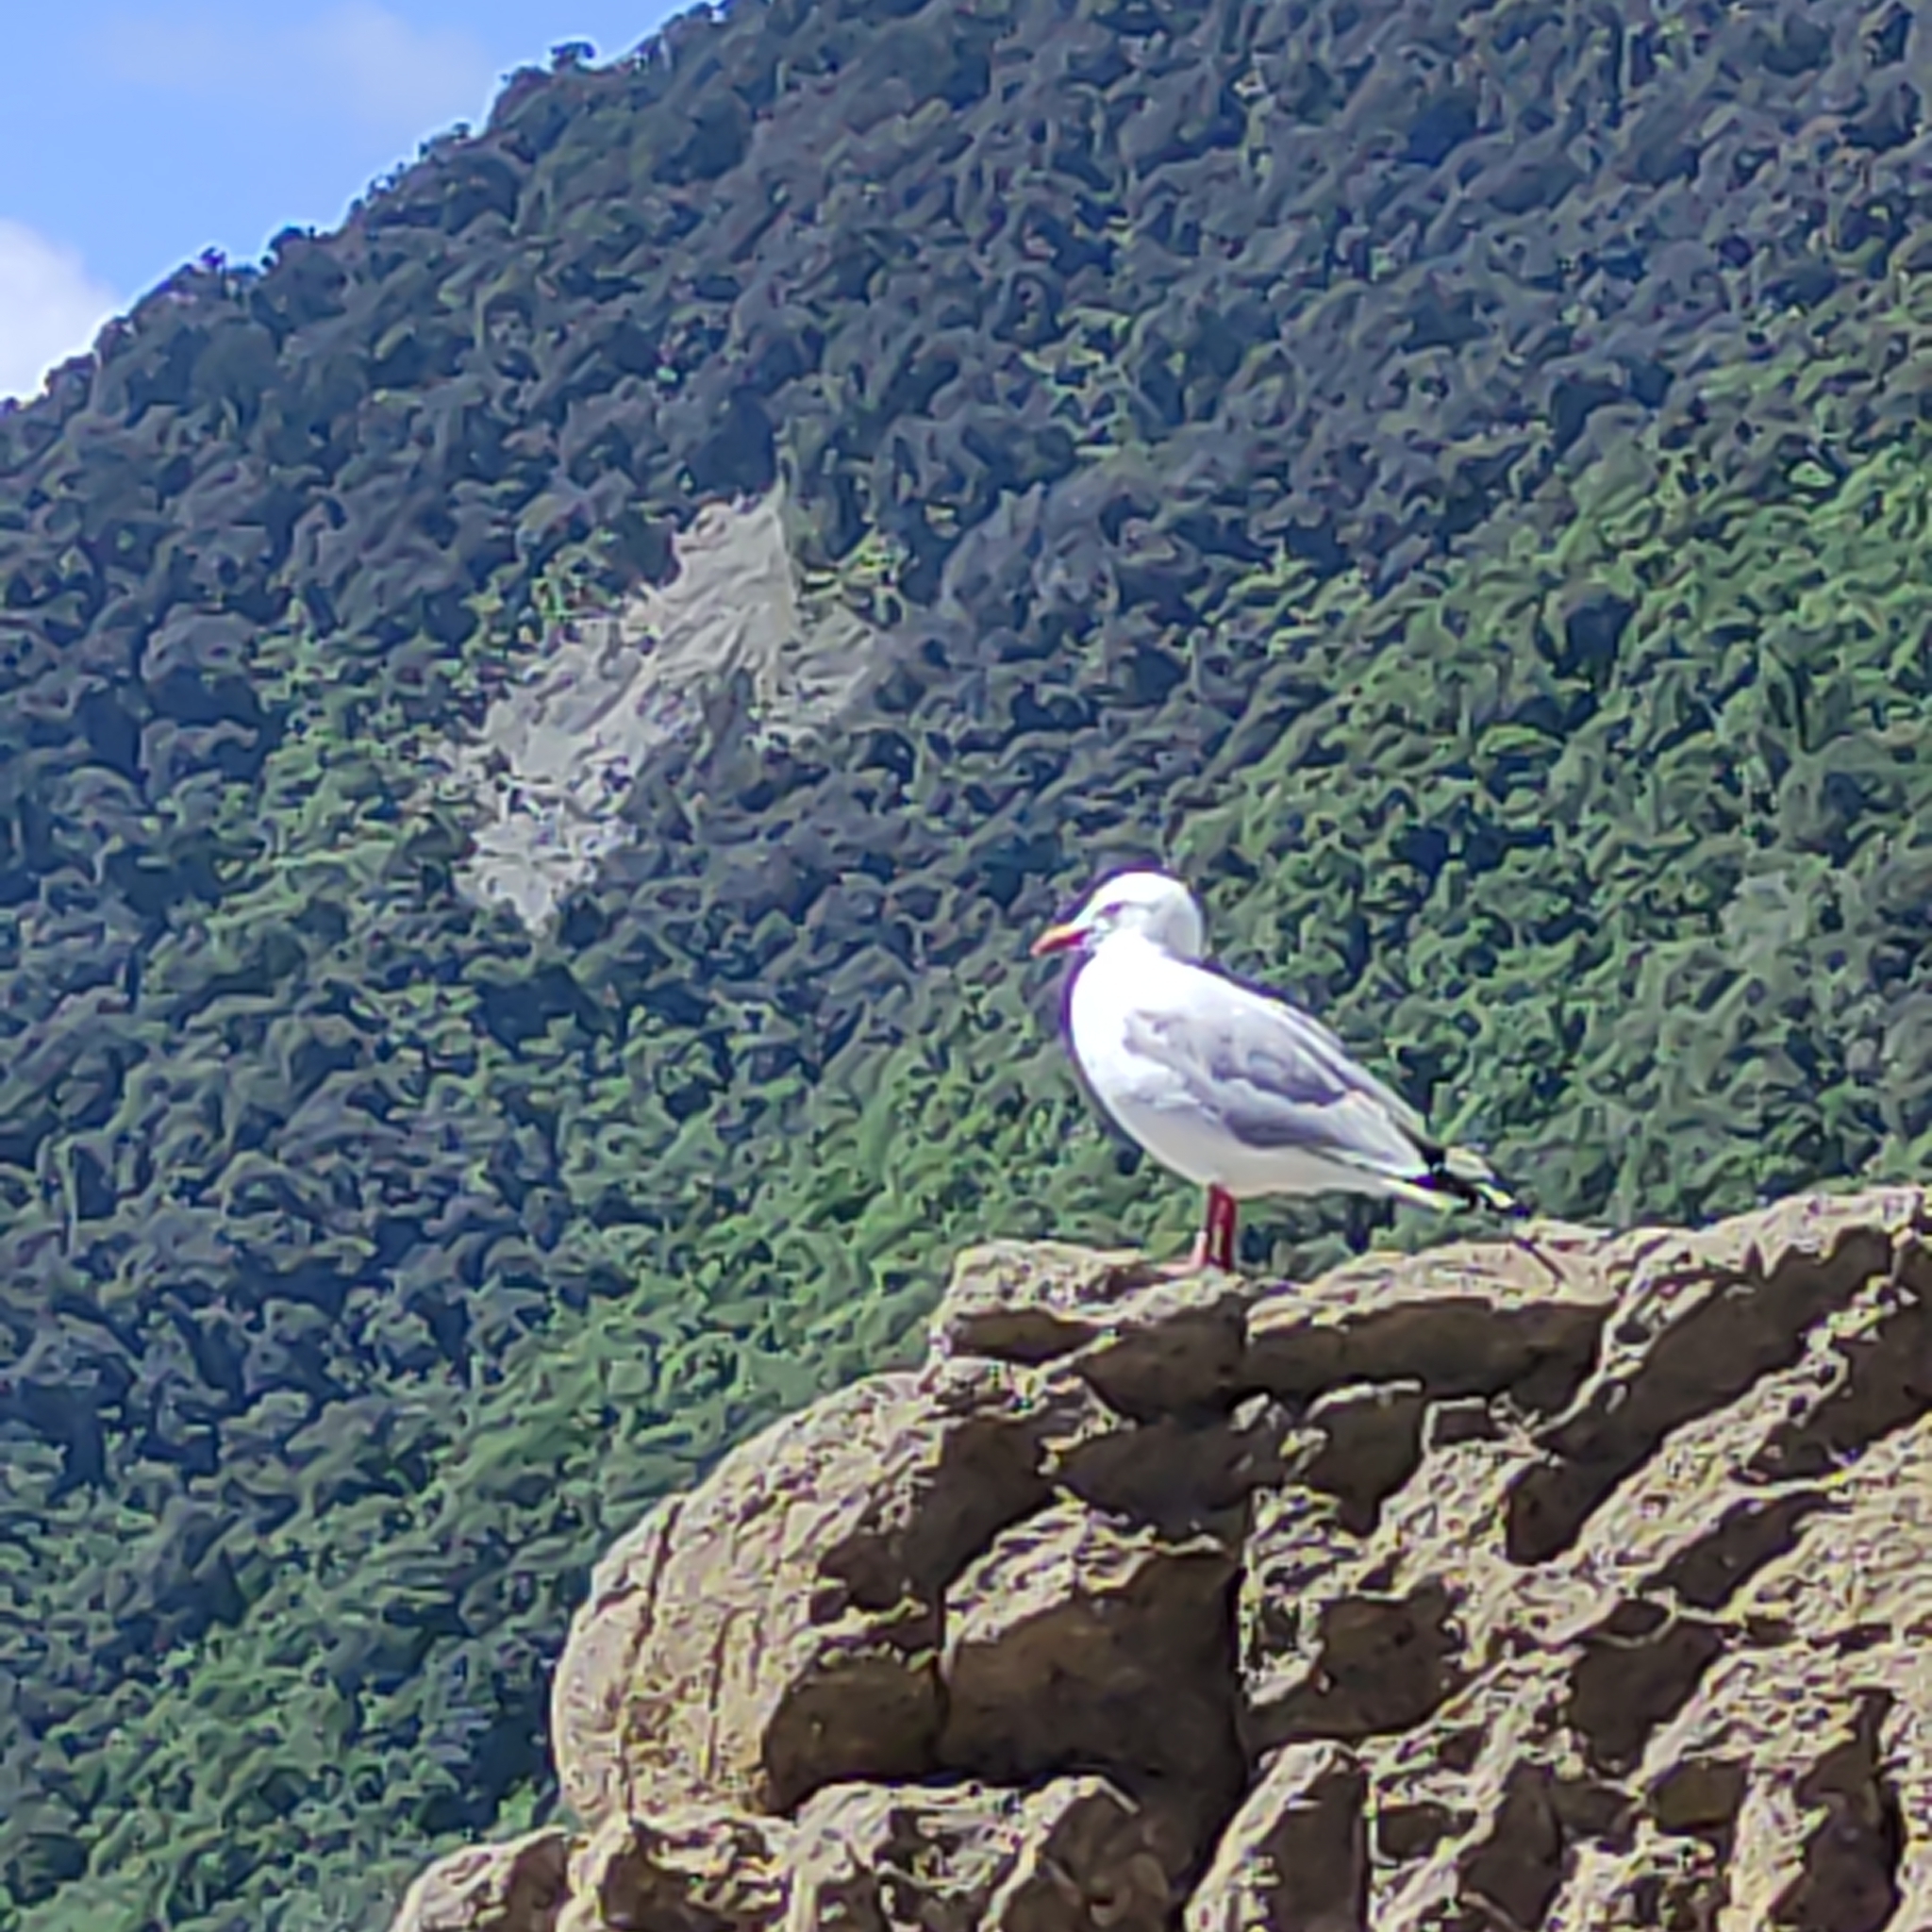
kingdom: Animalia
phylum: Chordata
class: Aves
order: Charadriiformes
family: Laridae
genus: Chroicocephalus
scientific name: Chroicocephalus novaehollandiae
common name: Silver gull
